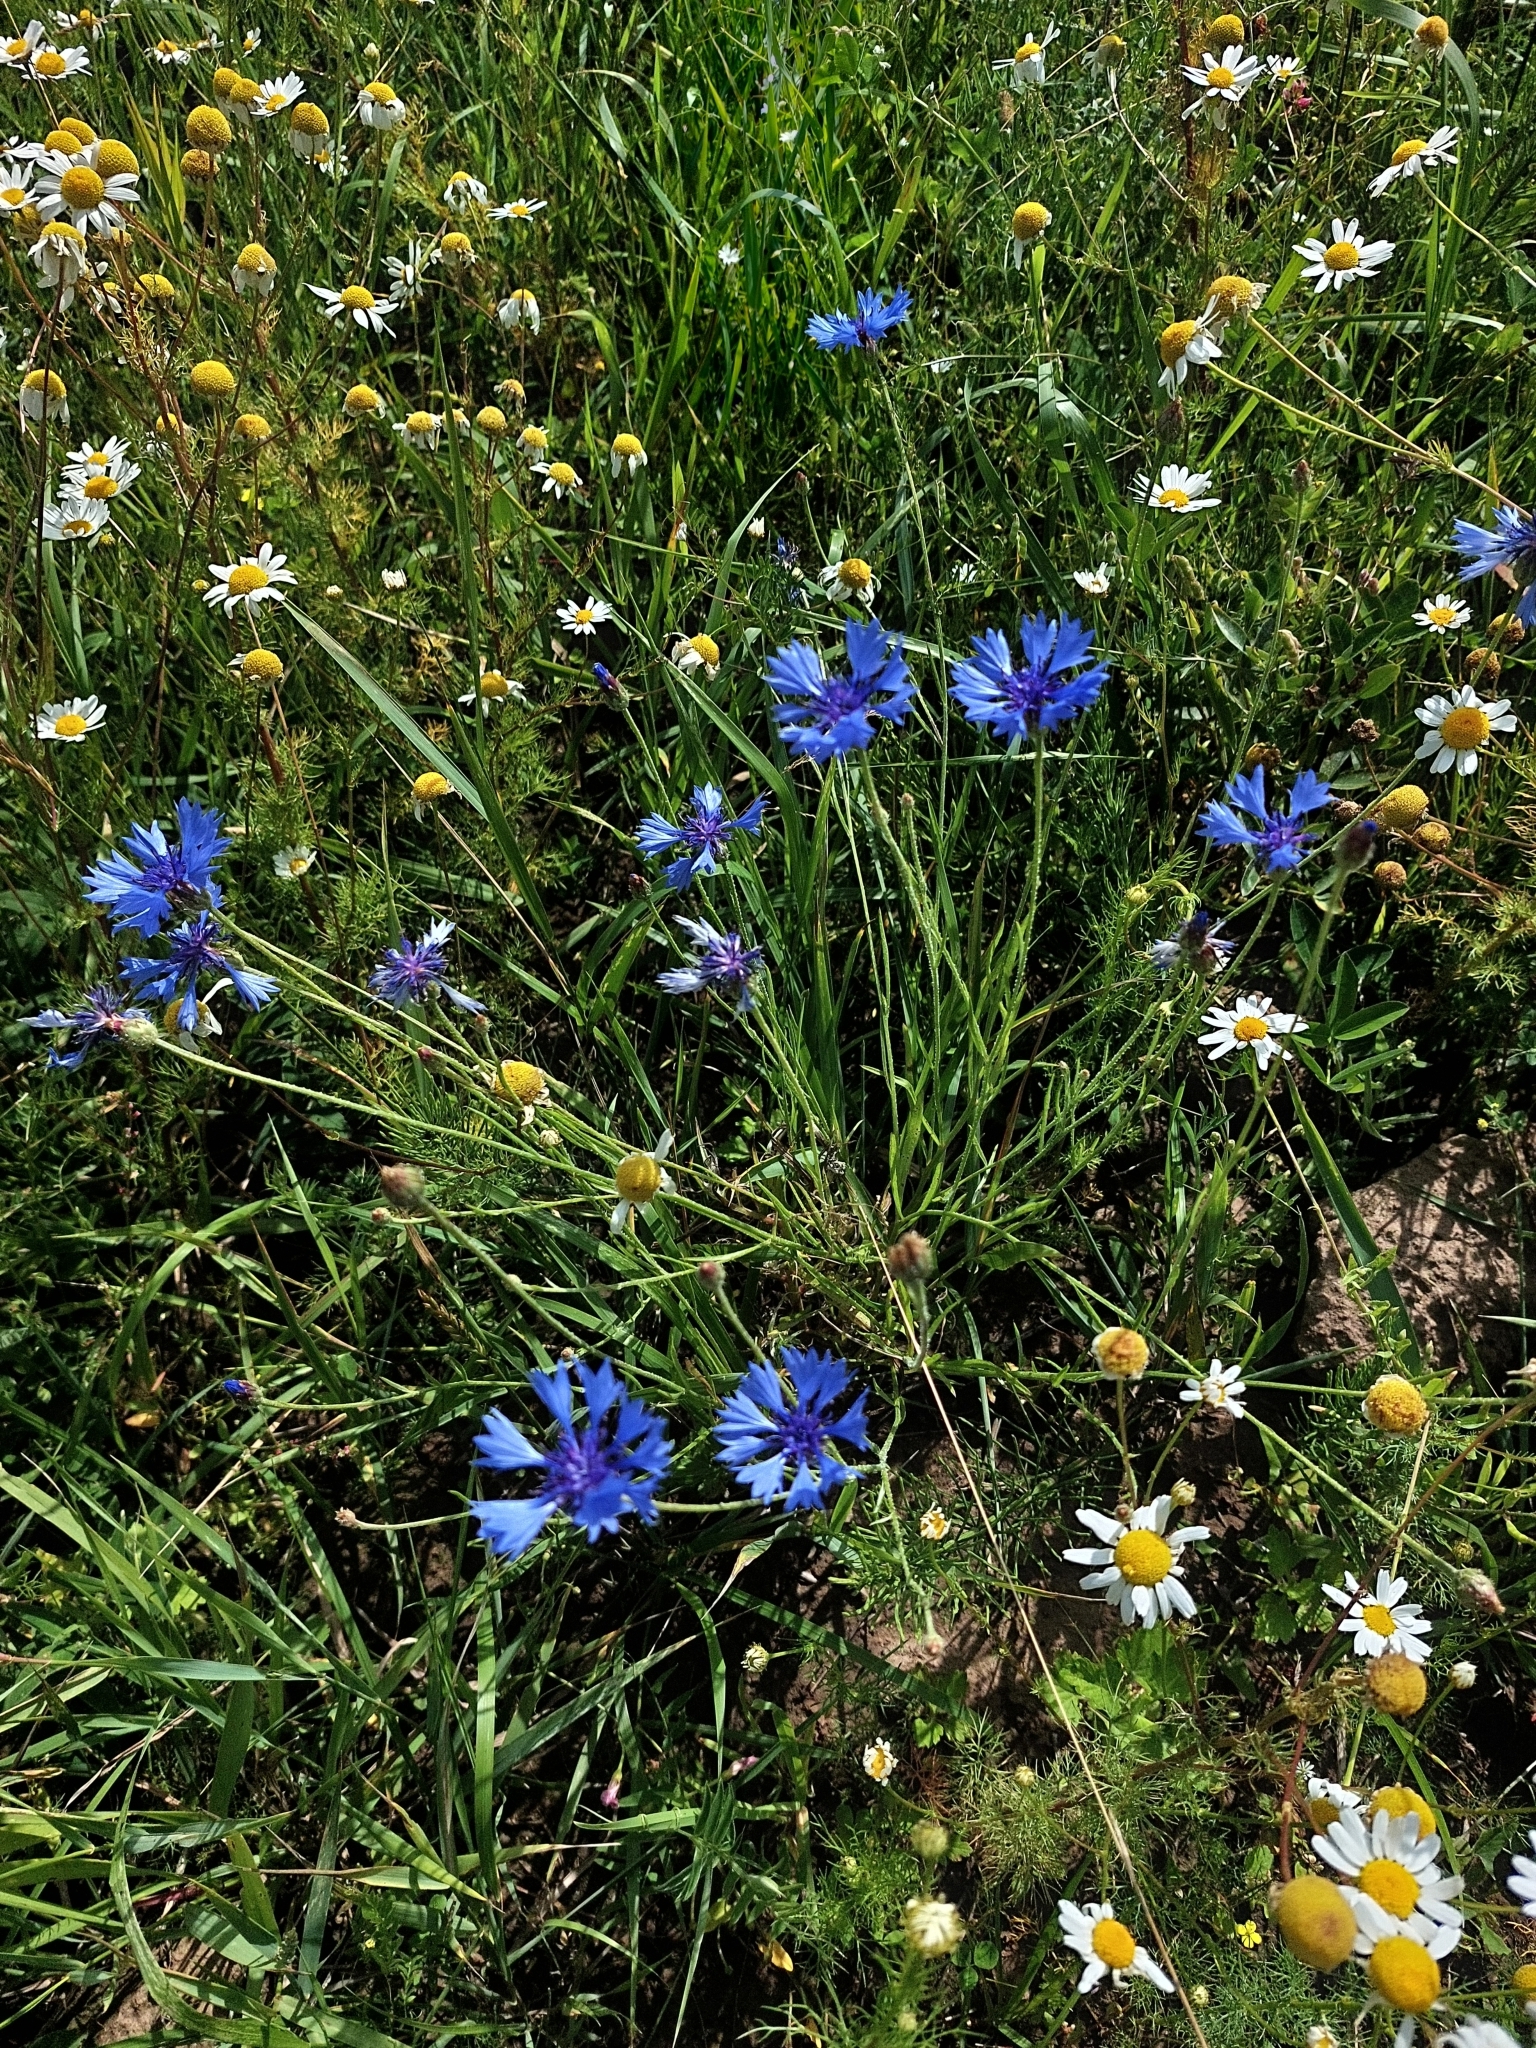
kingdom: Plantae
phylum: Tracheophyta
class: Magnoliopsida
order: Asterales
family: Asteraceae
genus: Centaurea
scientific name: Centaurea cyanus
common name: Cornflower
